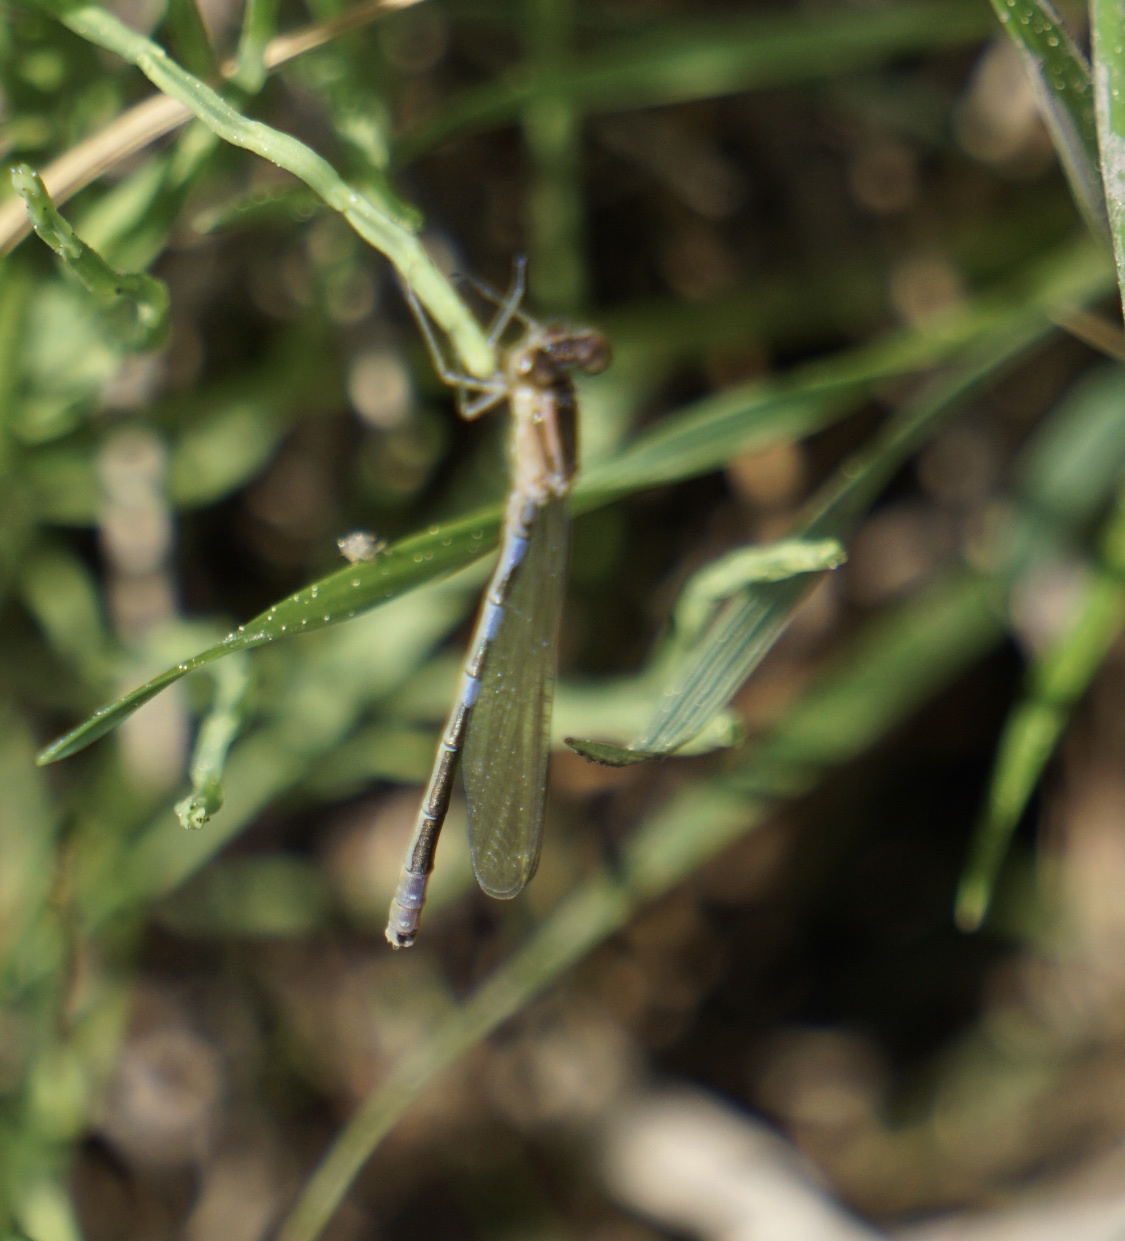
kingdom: Animalia
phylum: Arthropoda
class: Insecta
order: Odonata
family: Coenagrionidae
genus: Coenagrion
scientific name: Coenagrion resolutum
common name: Taiga bluet
